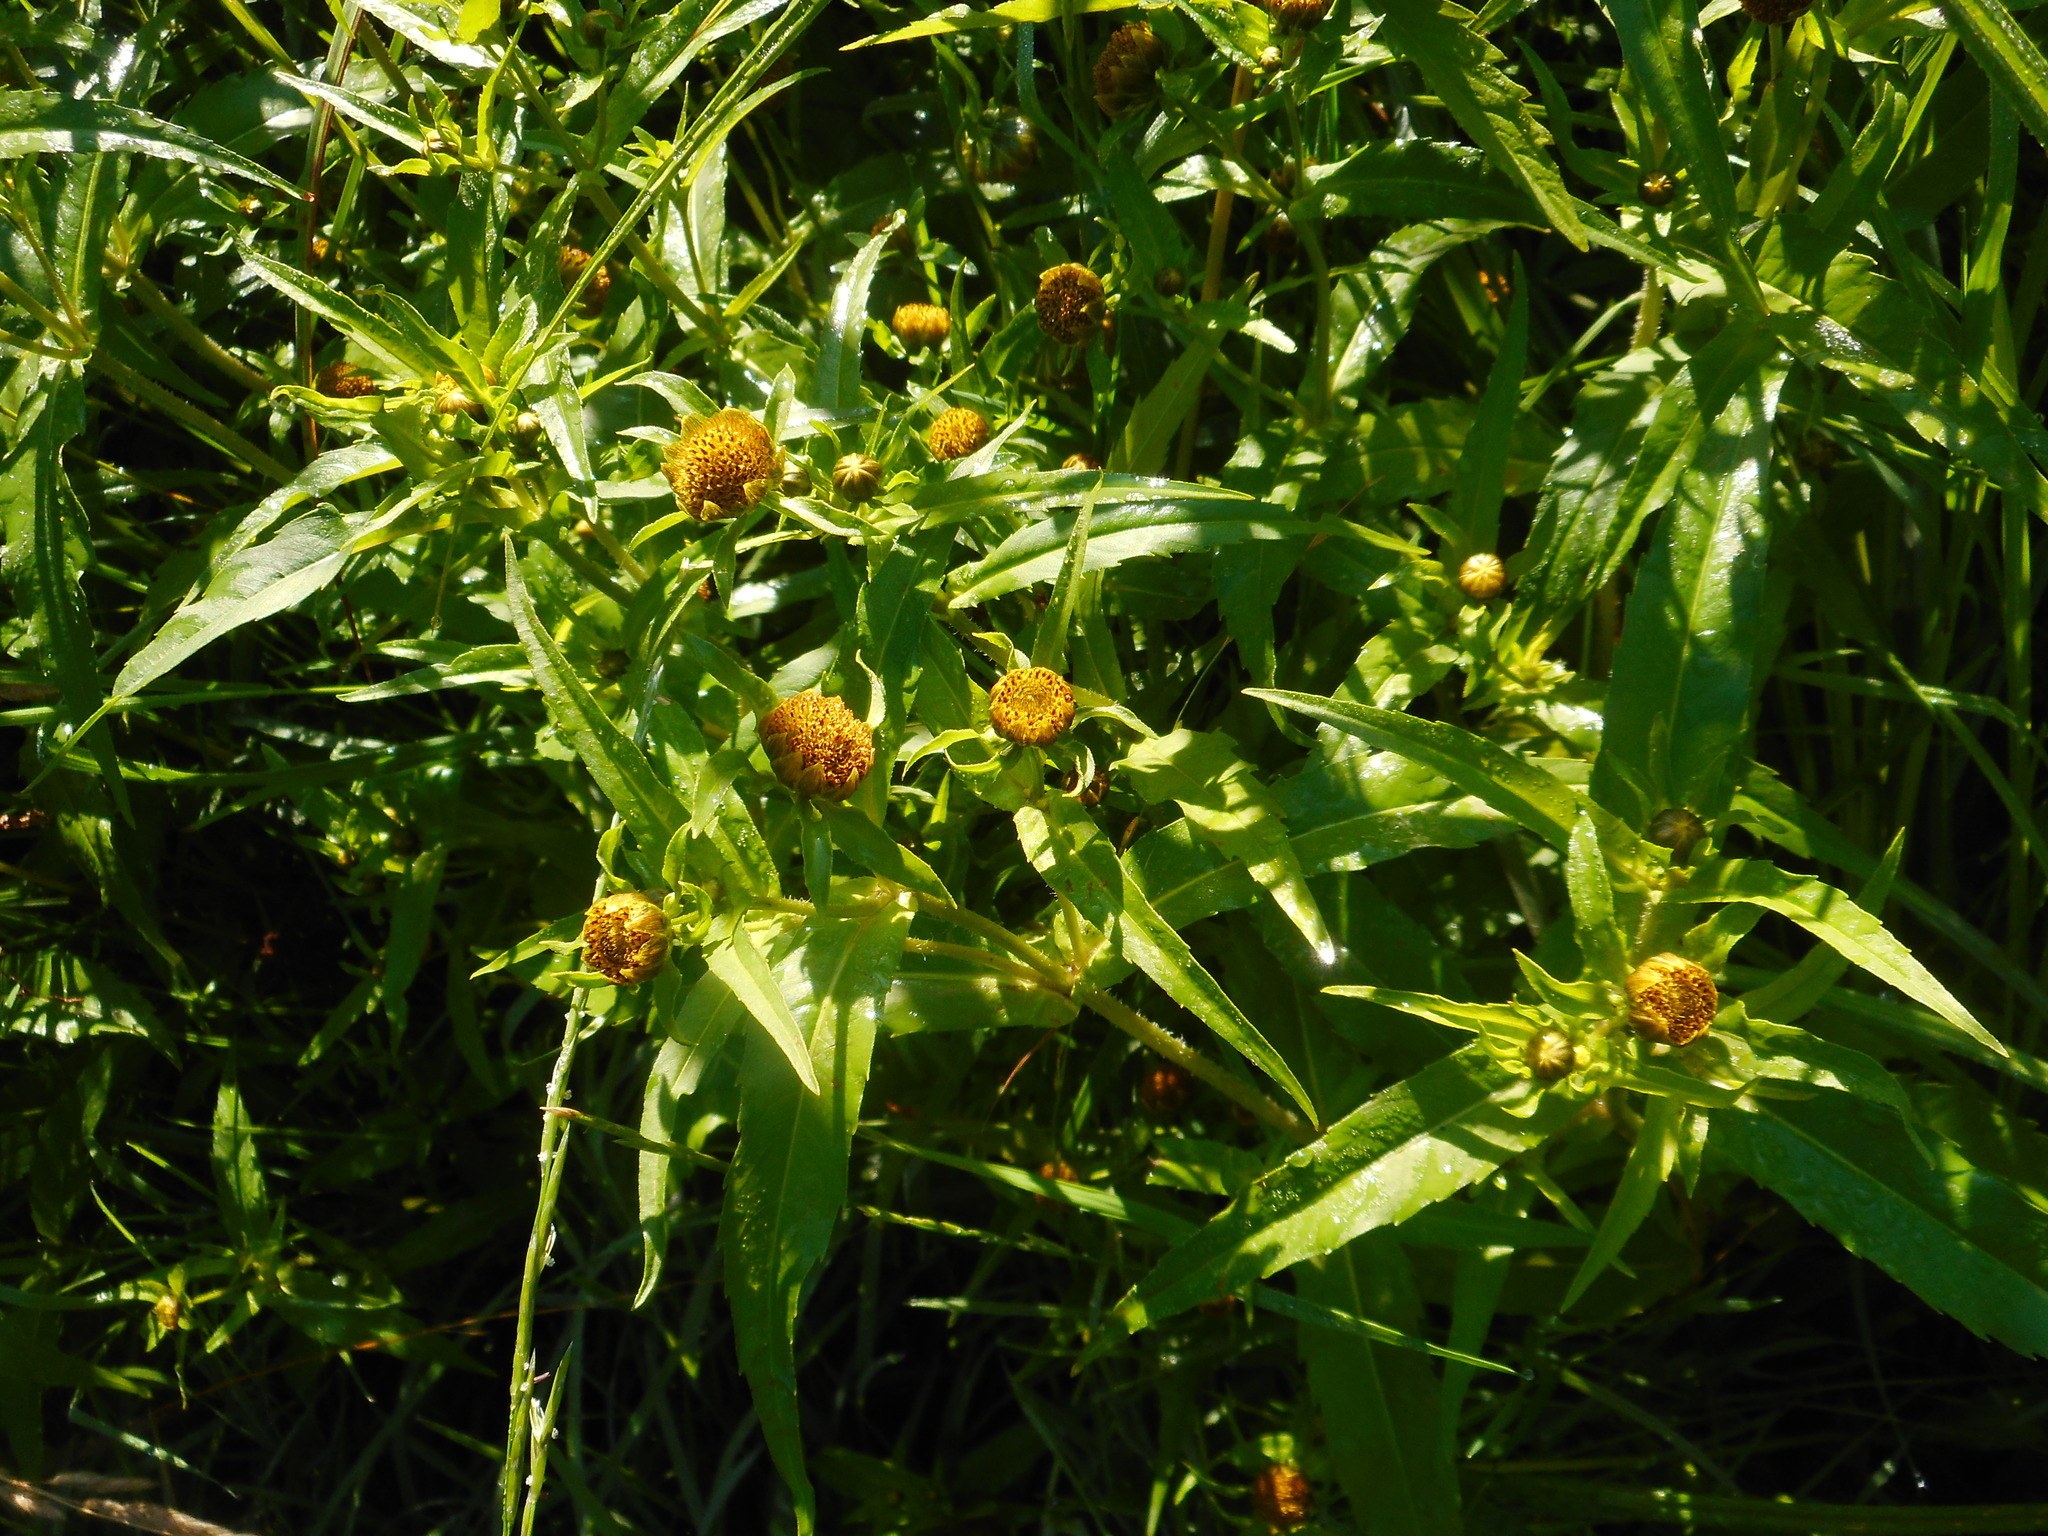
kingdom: Plantae
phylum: Tracheophyta
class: Magnoliopsida
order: Asterales
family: Asteraceae
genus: Bidens
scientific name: Bidens cernua
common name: Nodding bur-marigold
